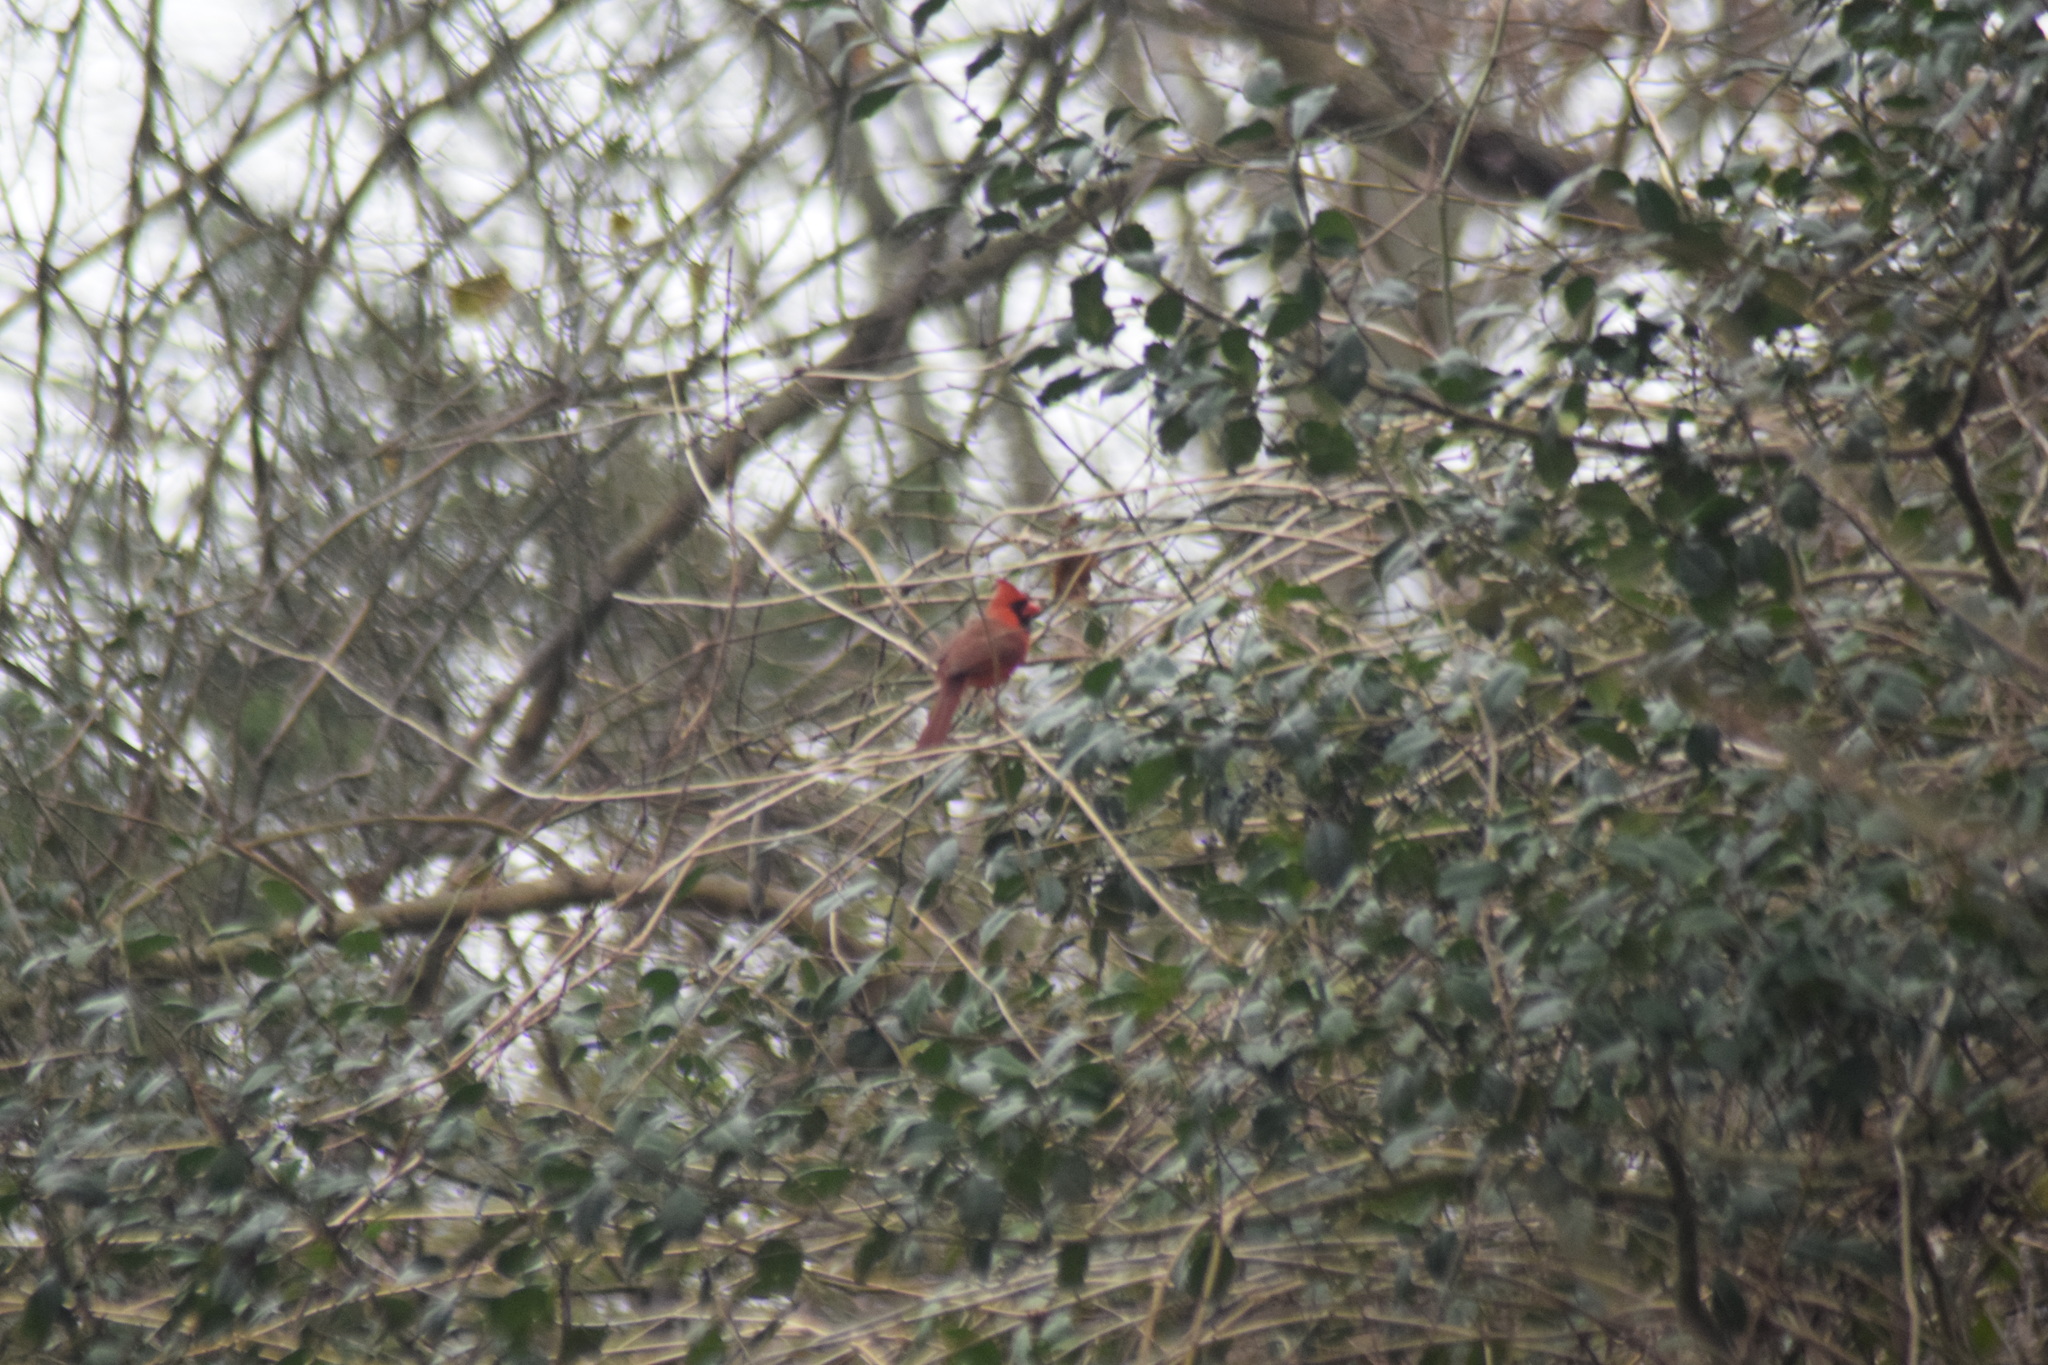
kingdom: Animalia
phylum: Chordata
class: Aves
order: Passeriformes
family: Cardinalidae
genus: Cardinalis
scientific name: Cardinalis cardinalis
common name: Northern cardinal
